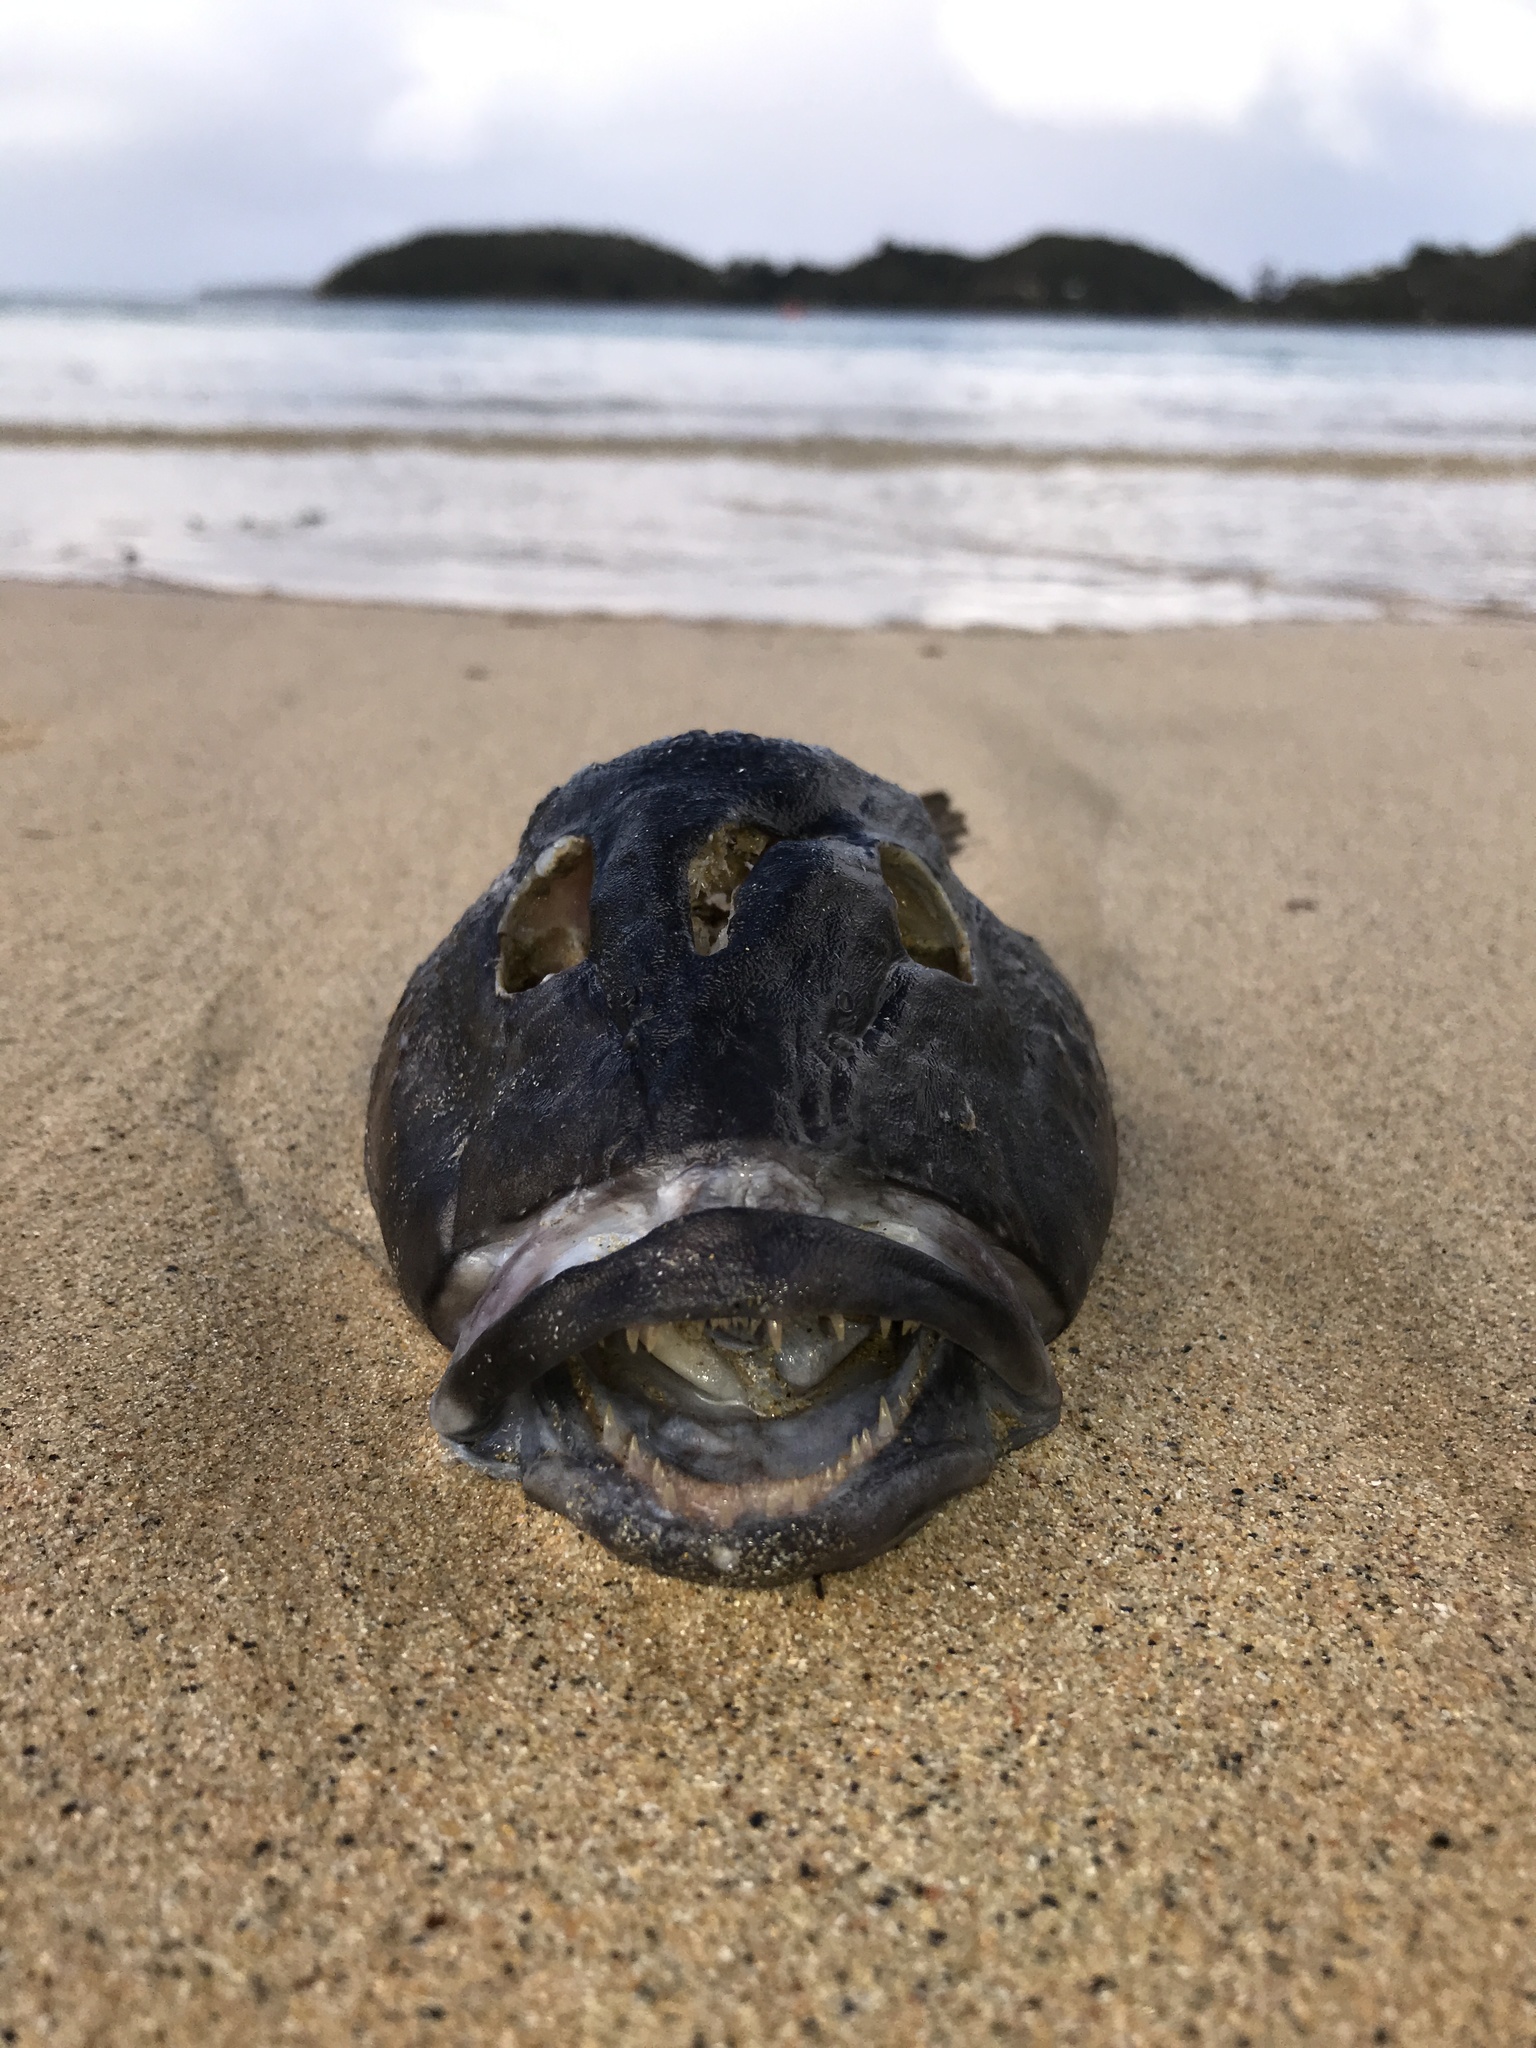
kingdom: Animalia
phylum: Chordata
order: Perciformes
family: Pinguipedidae
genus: Parapercis
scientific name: Parapercis colias
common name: Blue cod
